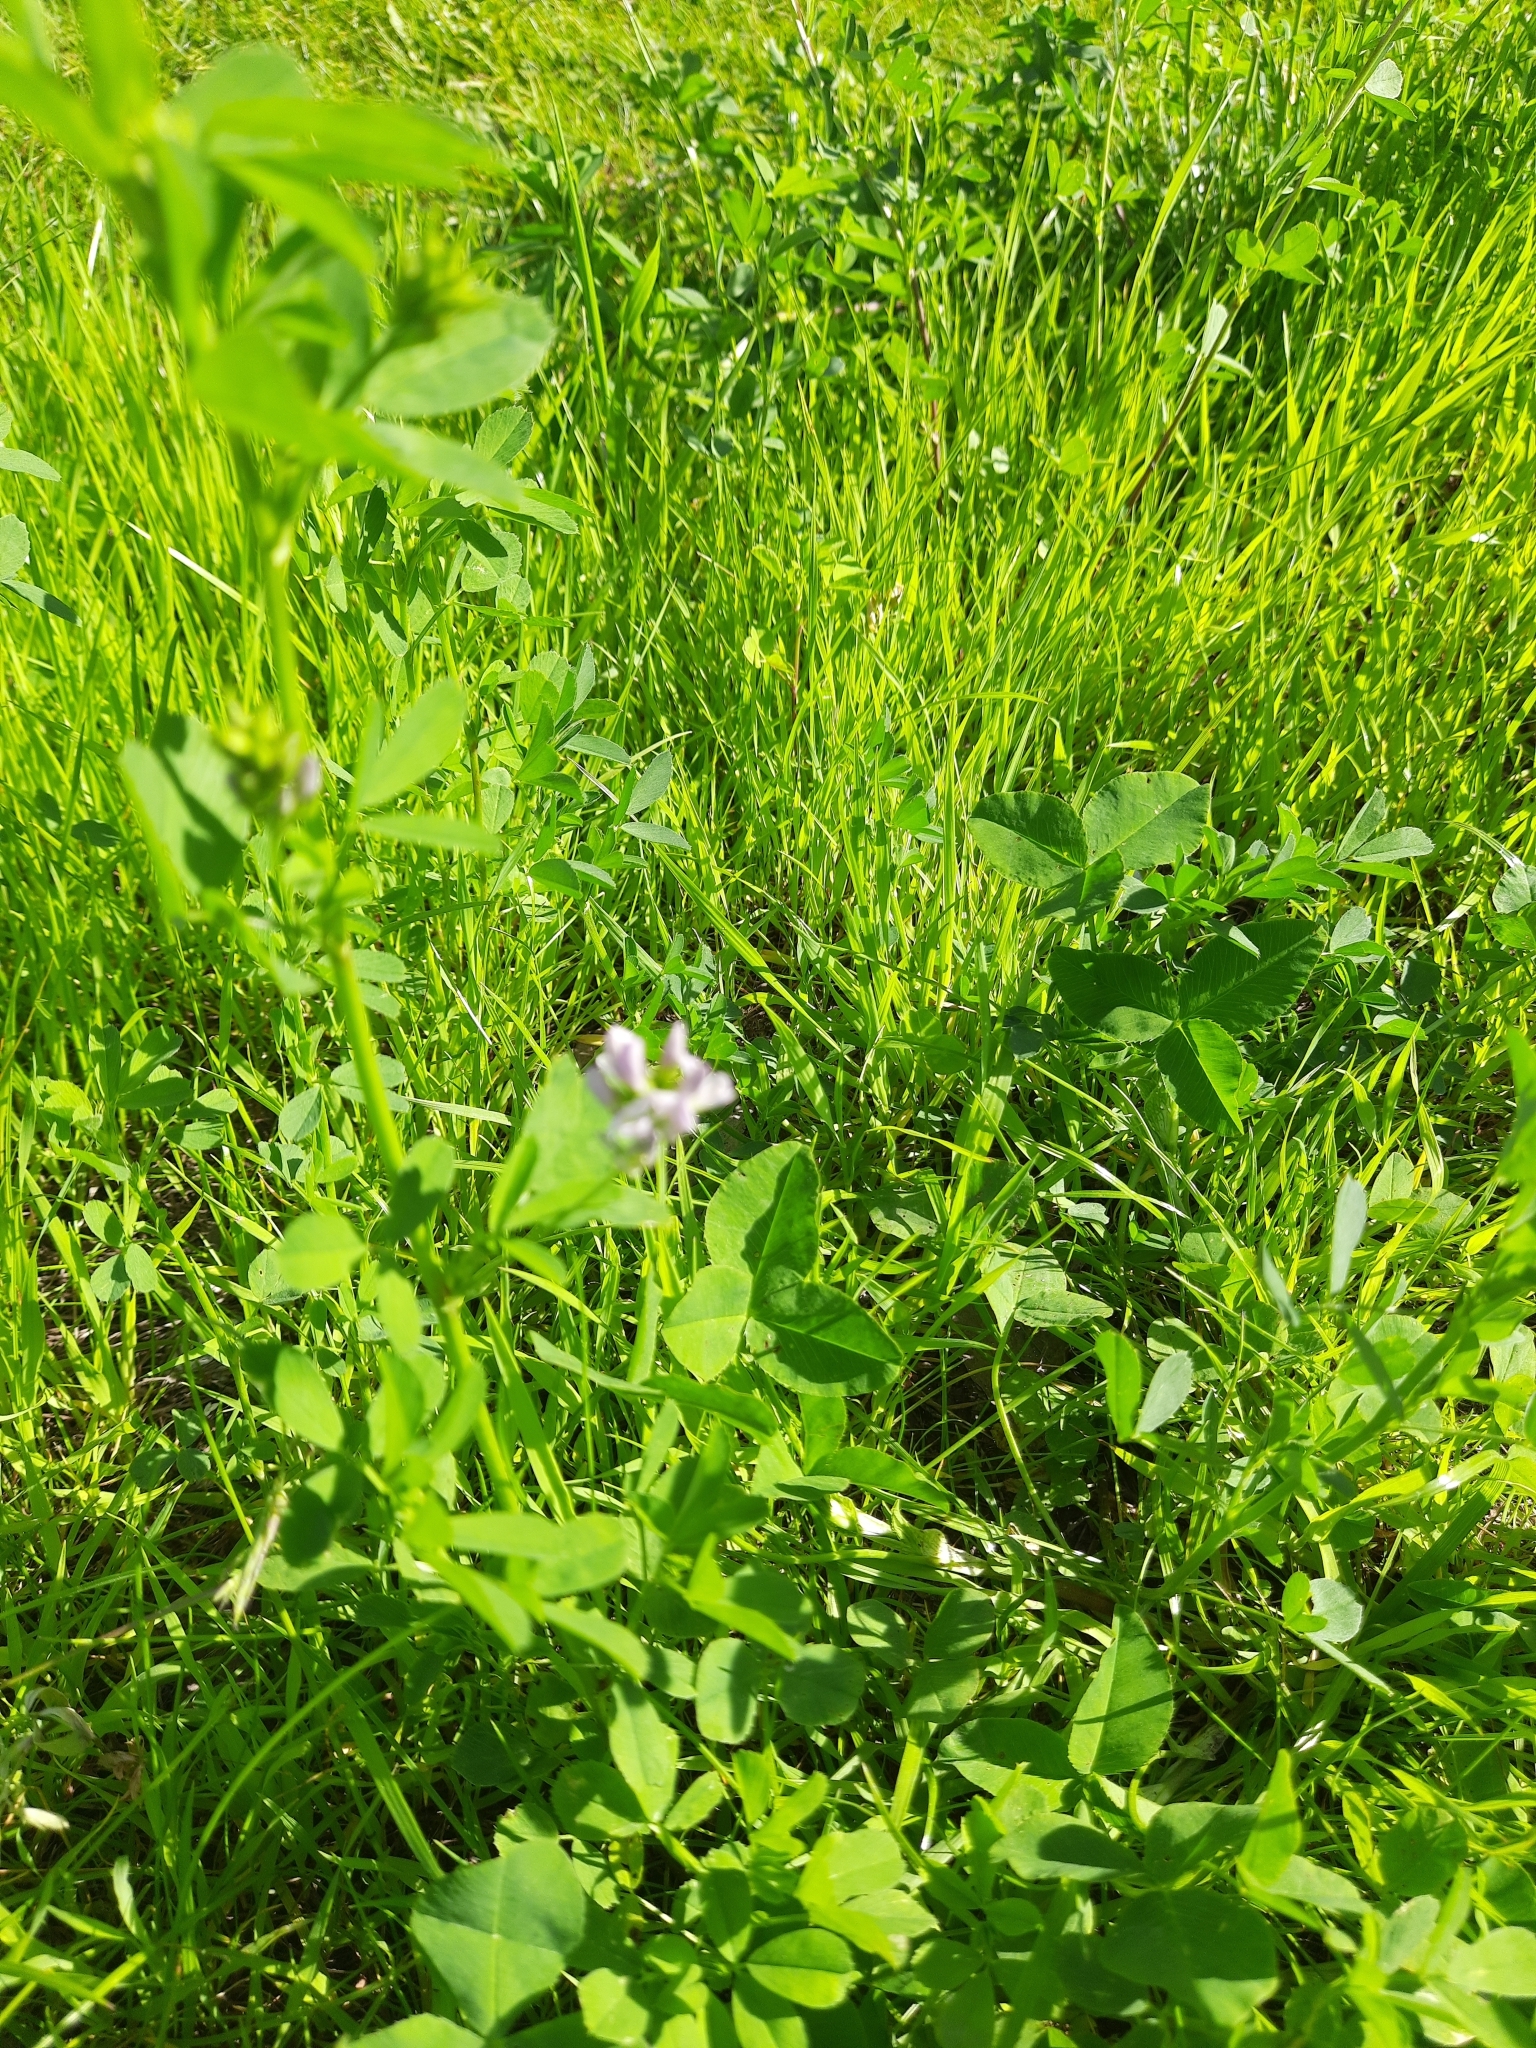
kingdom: Plantae
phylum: Tracheophyta
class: Magnoliopsida
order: Fabales
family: Fabaceae
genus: Medicago
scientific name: Medicago varia
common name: Sand lucerne
